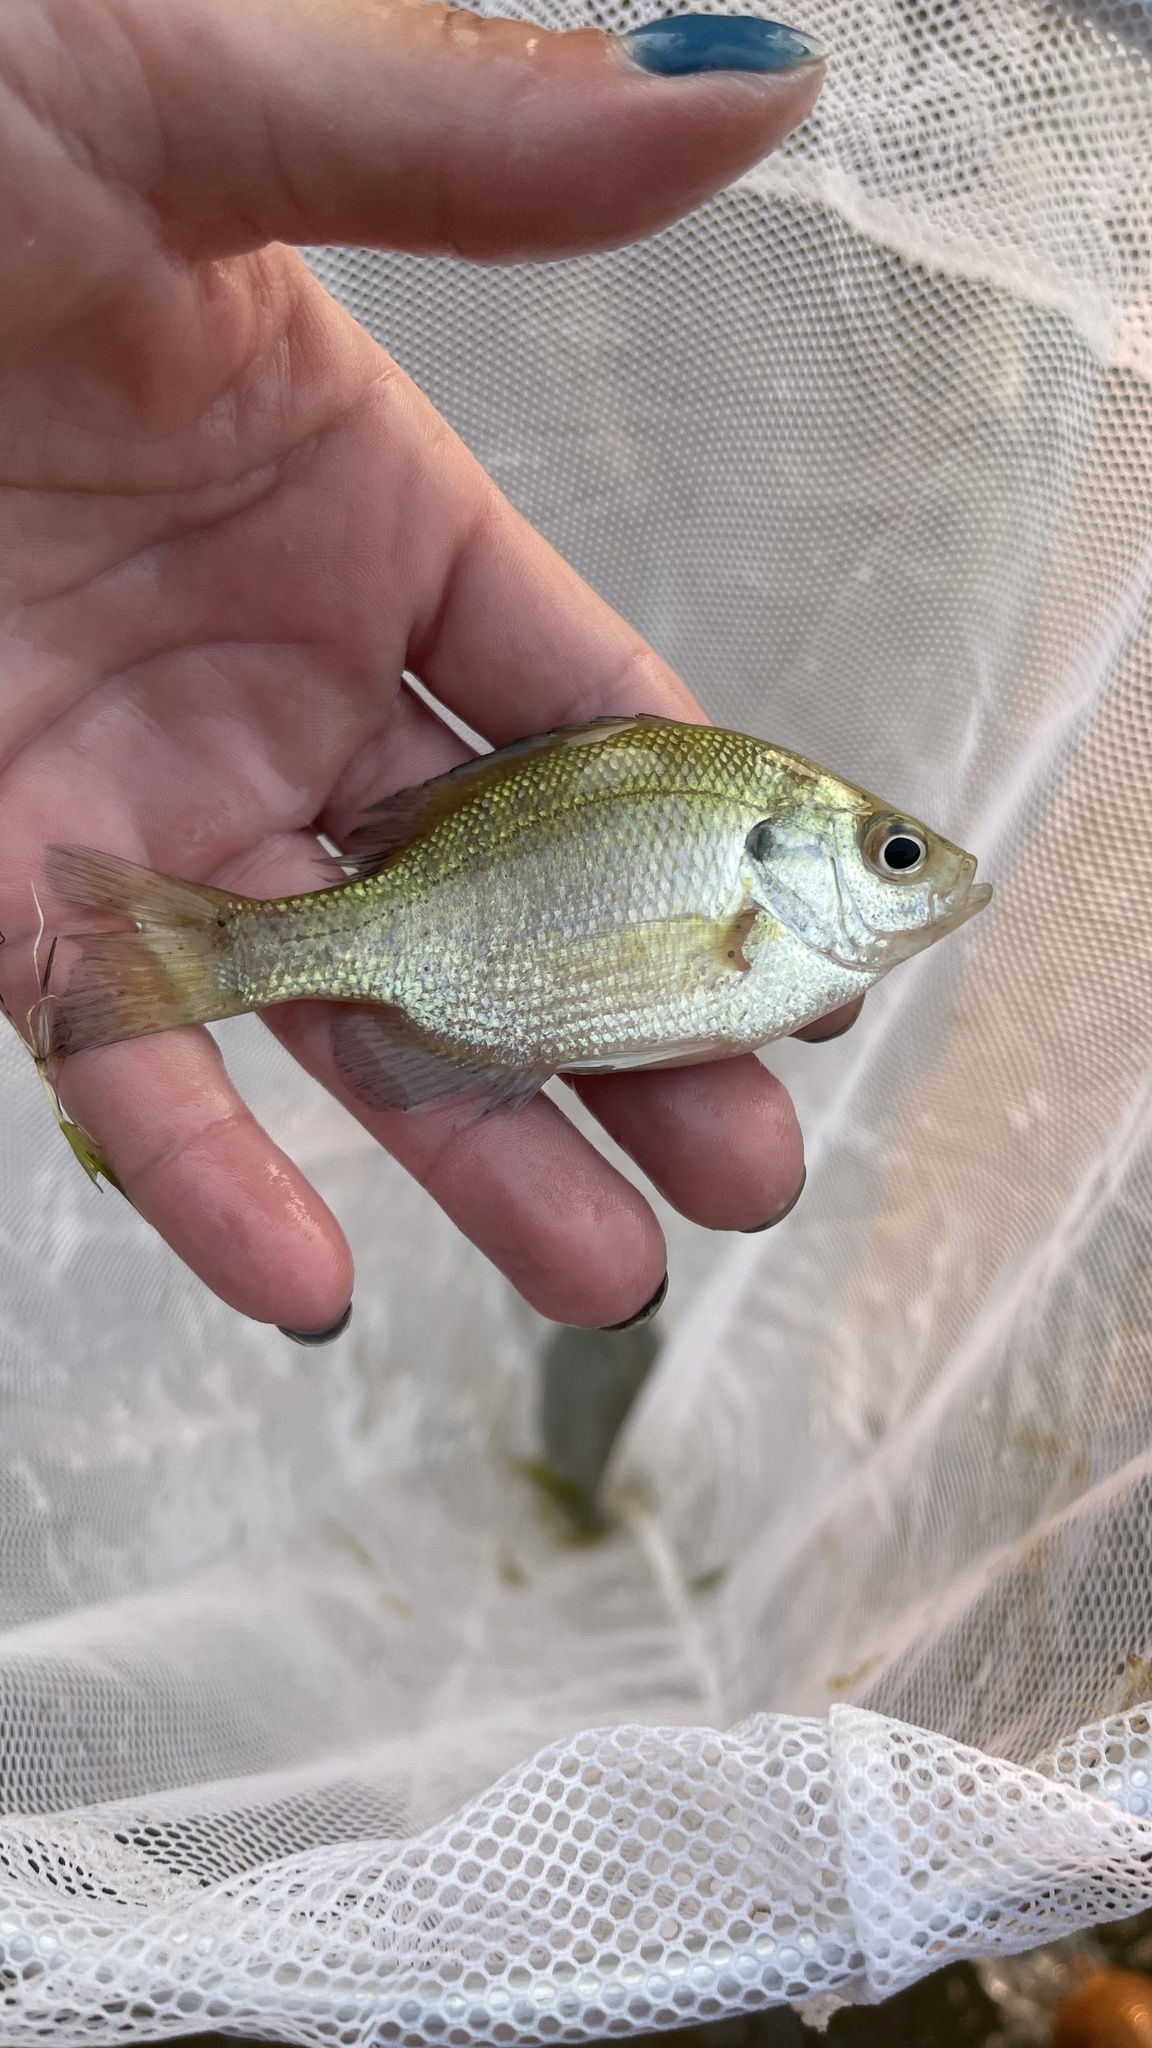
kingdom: Animalia
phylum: Chordata
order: Perciformes
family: Centrarchidae
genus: Lepomis
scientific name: Lepomis macrochirus
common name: Bluegill
